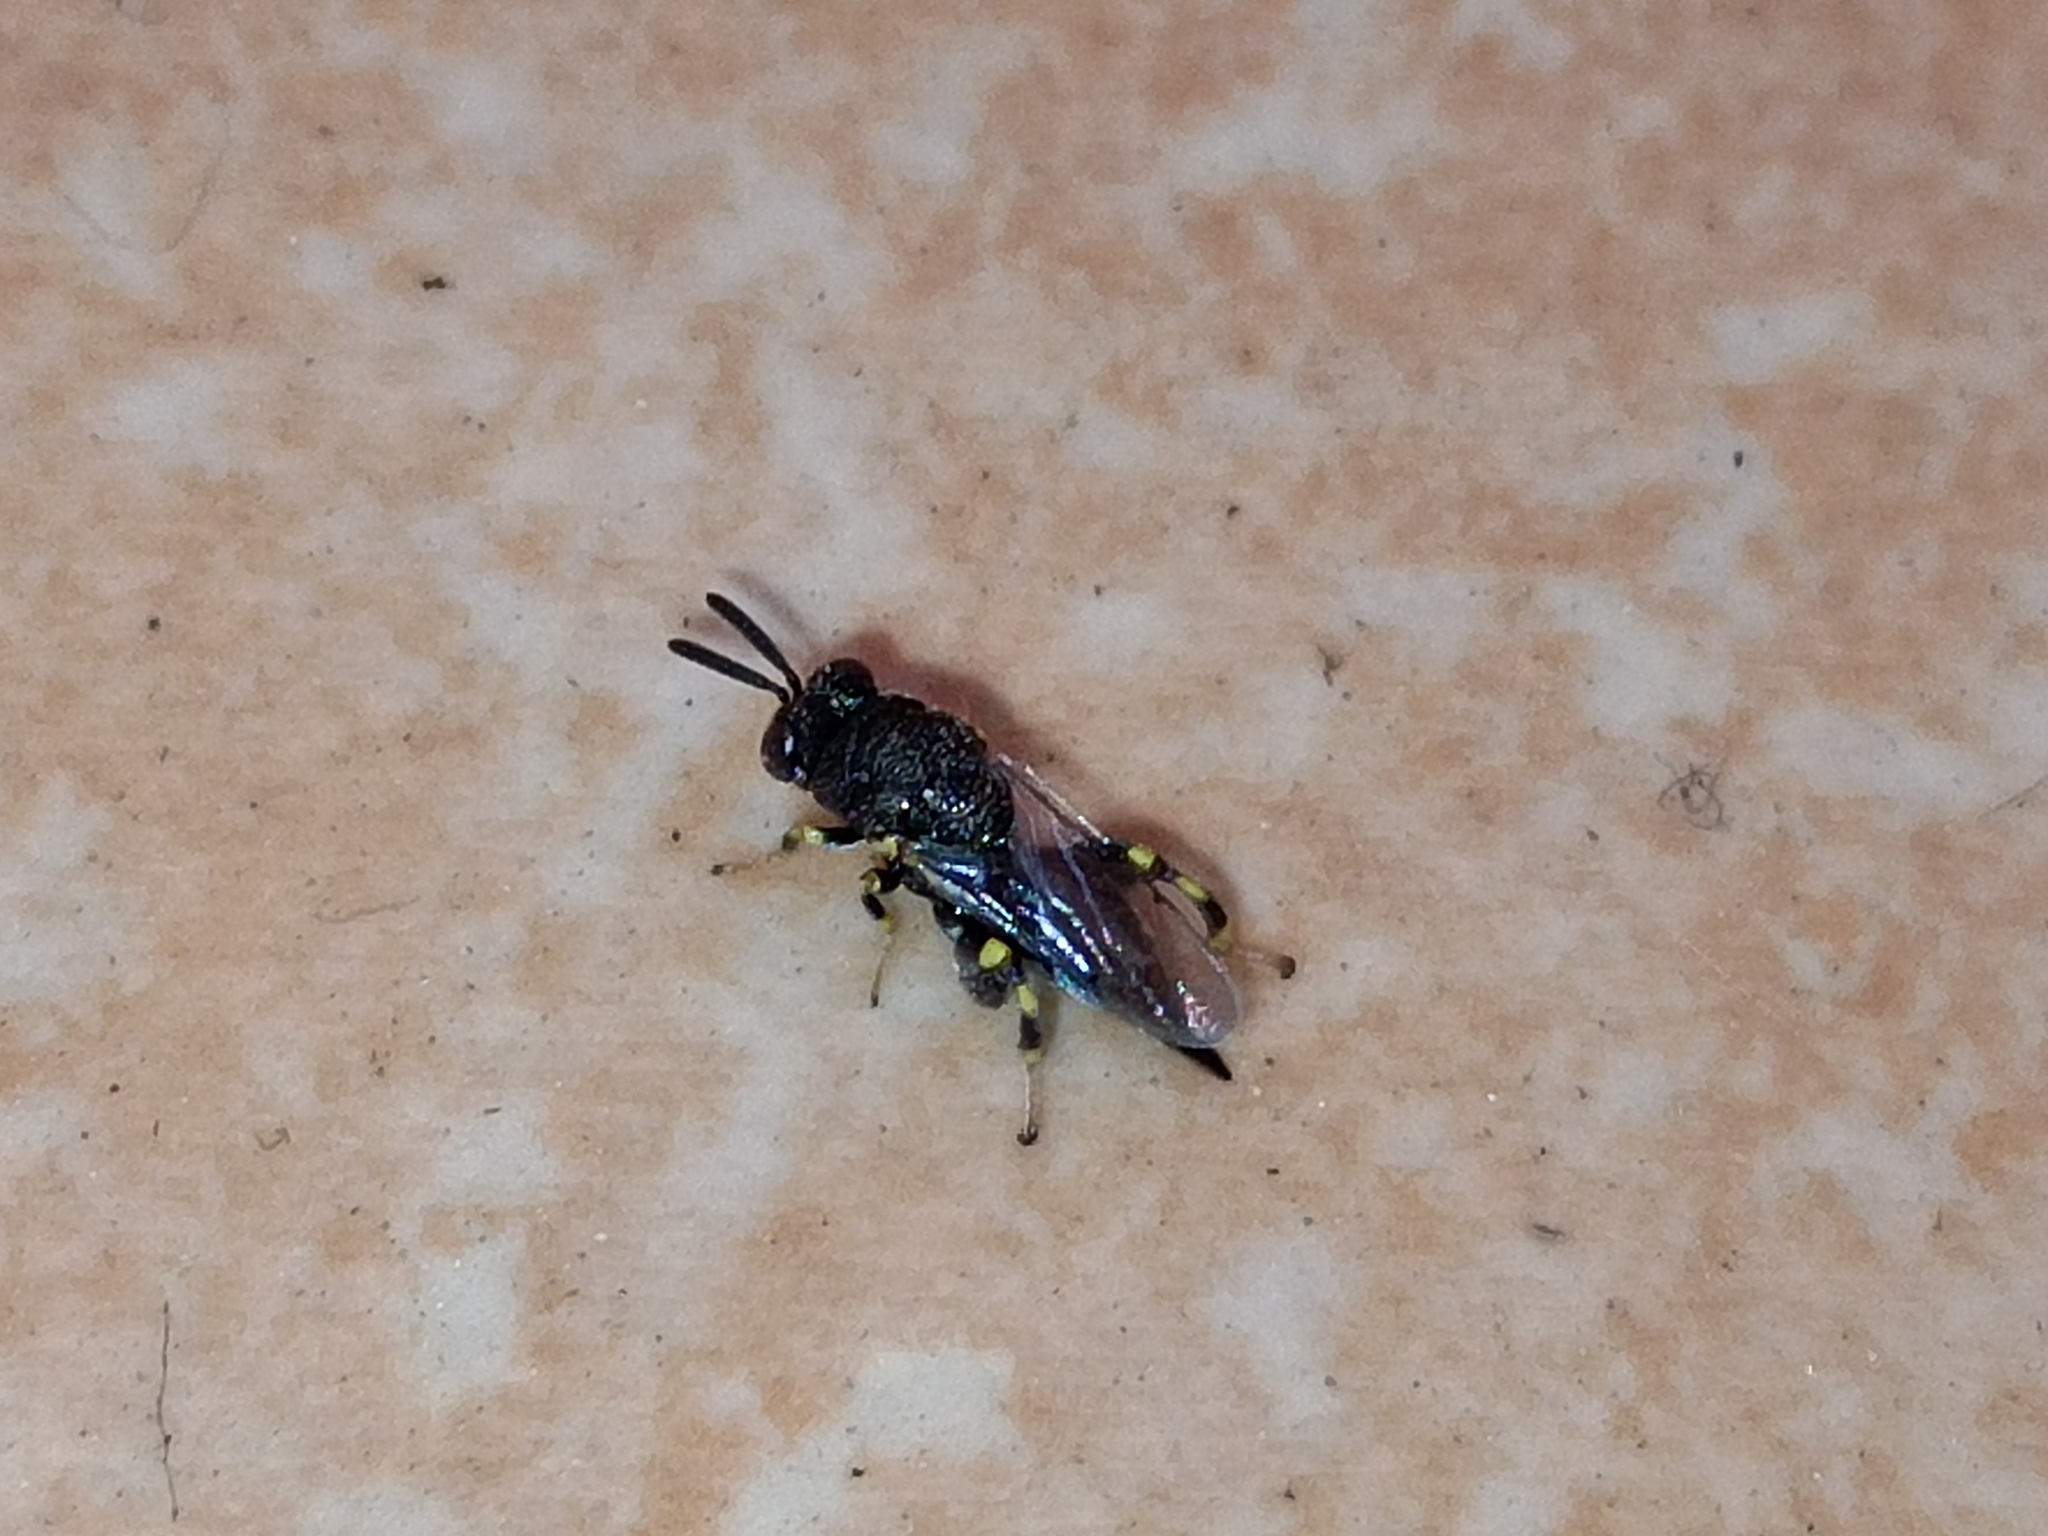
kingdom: Animalia
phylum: Arthropoda
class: Insecta
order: Hymenoptera
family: Chalcididae
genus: Brachymeria
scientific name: Brachymeria podagrica
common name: Chalcid wasp
